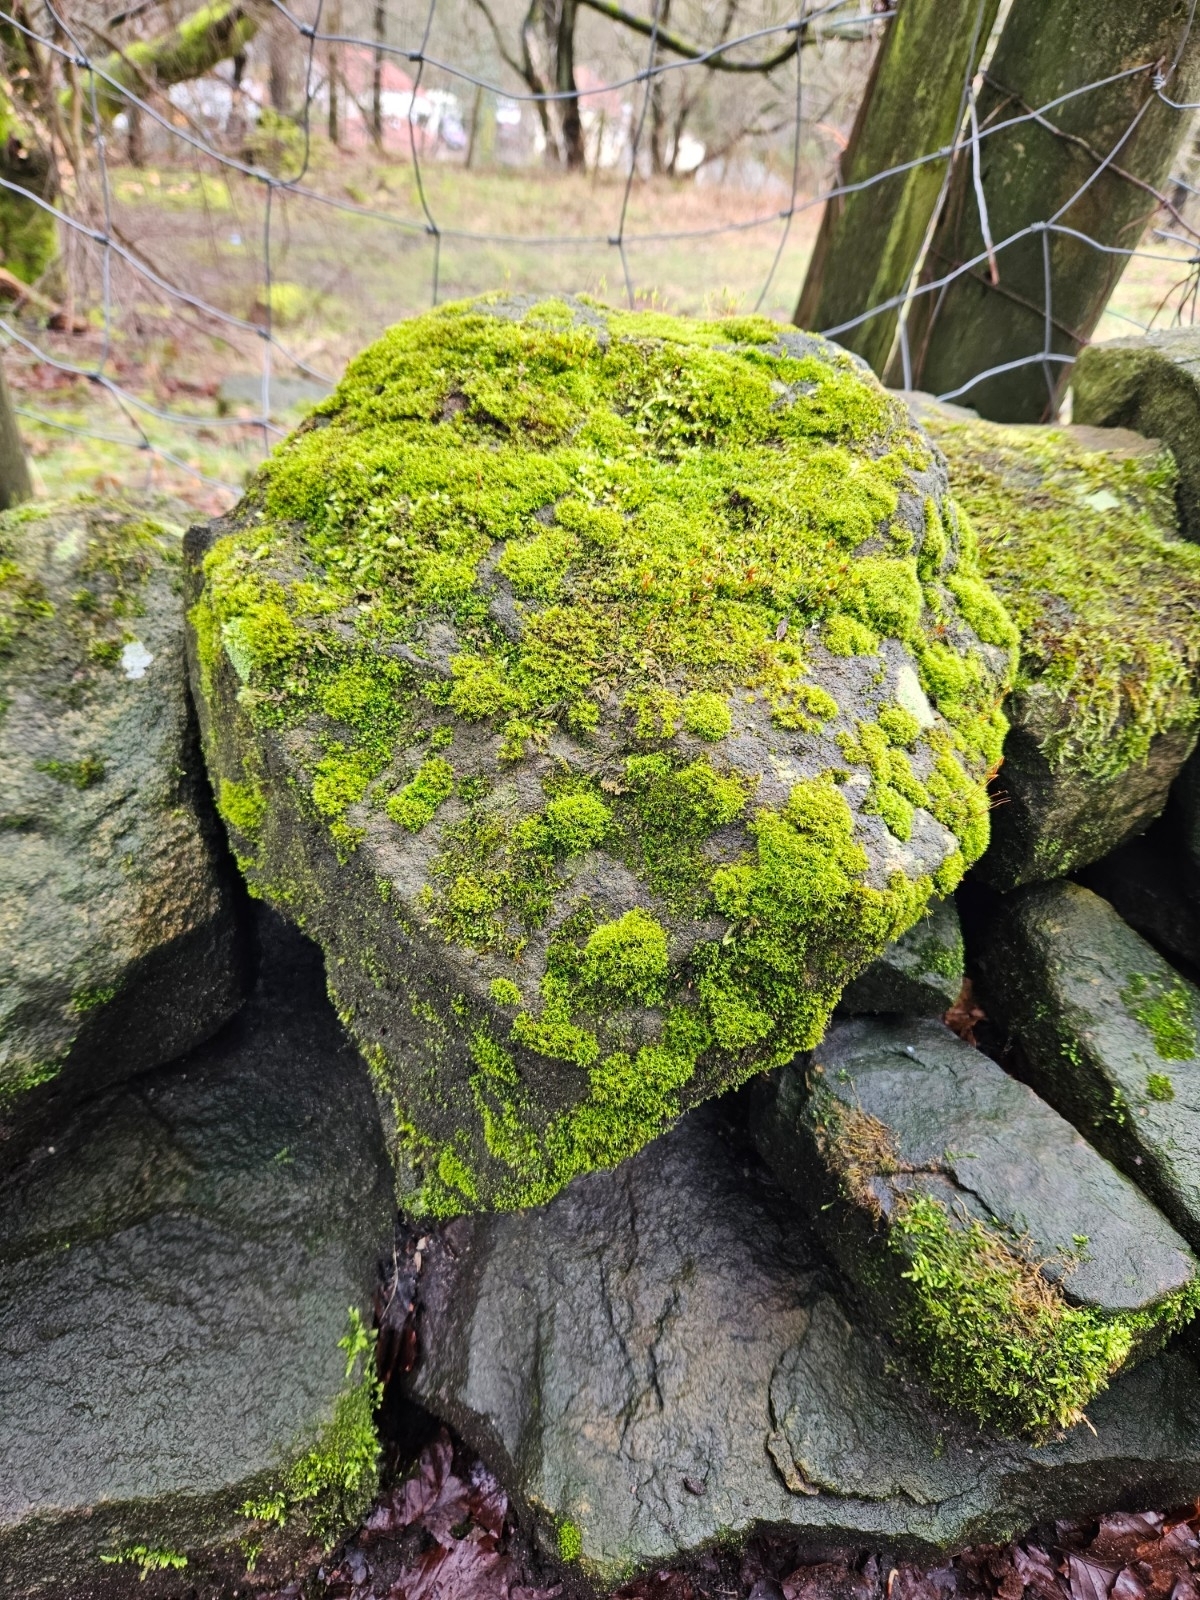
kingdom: Plantae
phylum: Bryophyta
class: Bryopsida
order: Pottiales
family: Pottiaceae
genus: Vinealobryum
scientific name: Vinealobryum insulanum
